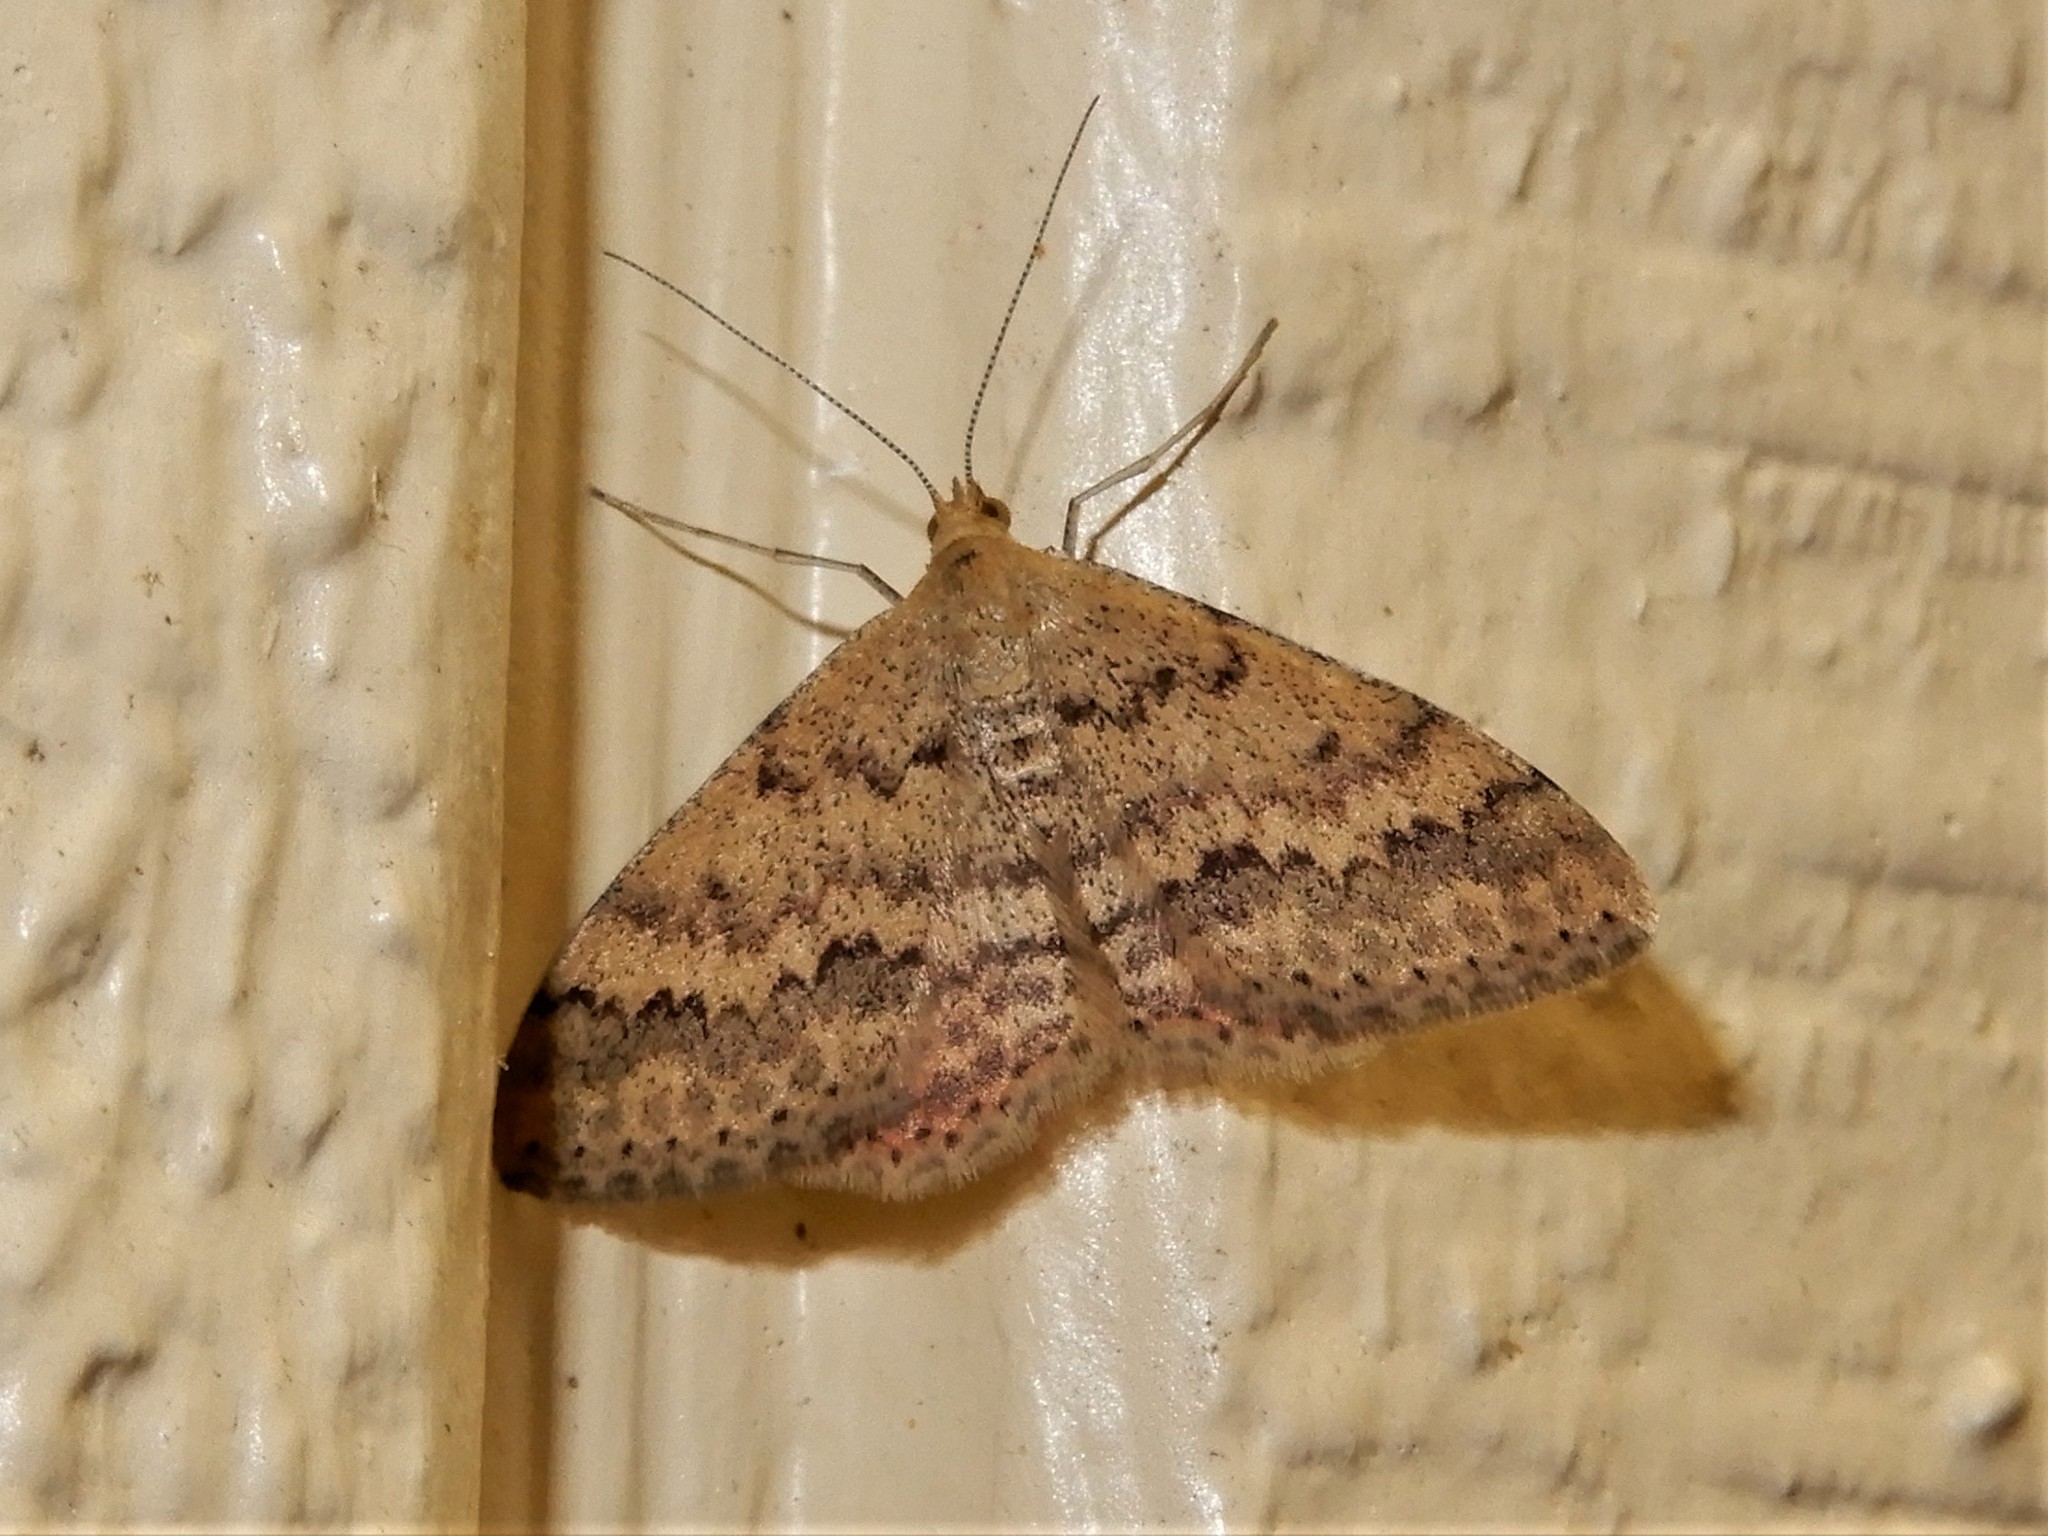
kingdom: Animalia
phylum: Arthropoda
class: Insecta
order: Lepidoptera
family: Geometridae
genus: Scopula
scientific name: Scopula rubraria
